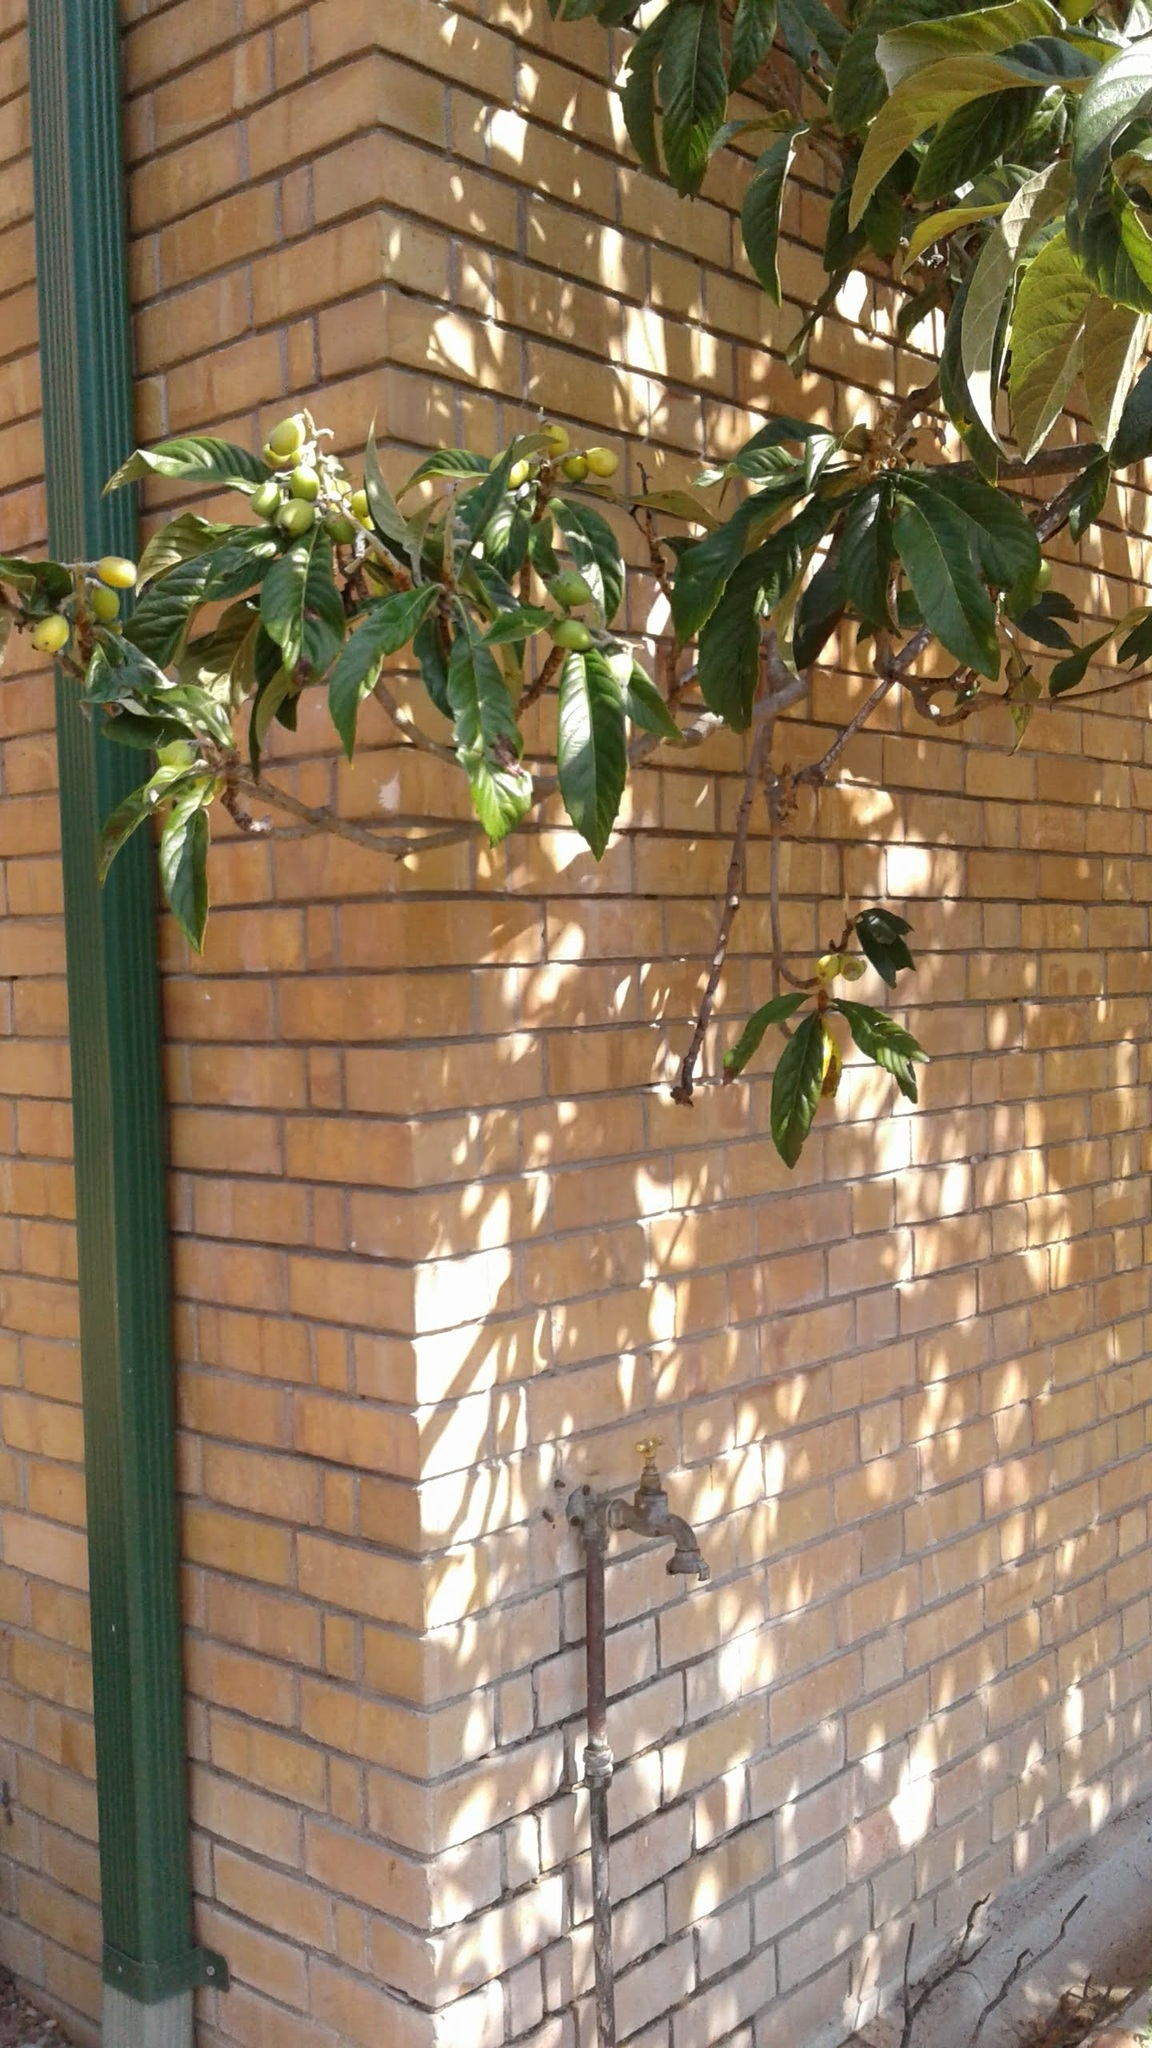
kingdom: Animalia
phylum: Chordata
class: Amphibia
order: Anura
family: Hyperoliidae
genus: Hyperolius
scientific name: Hyperolius marmoratus
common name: Painted reed frog
